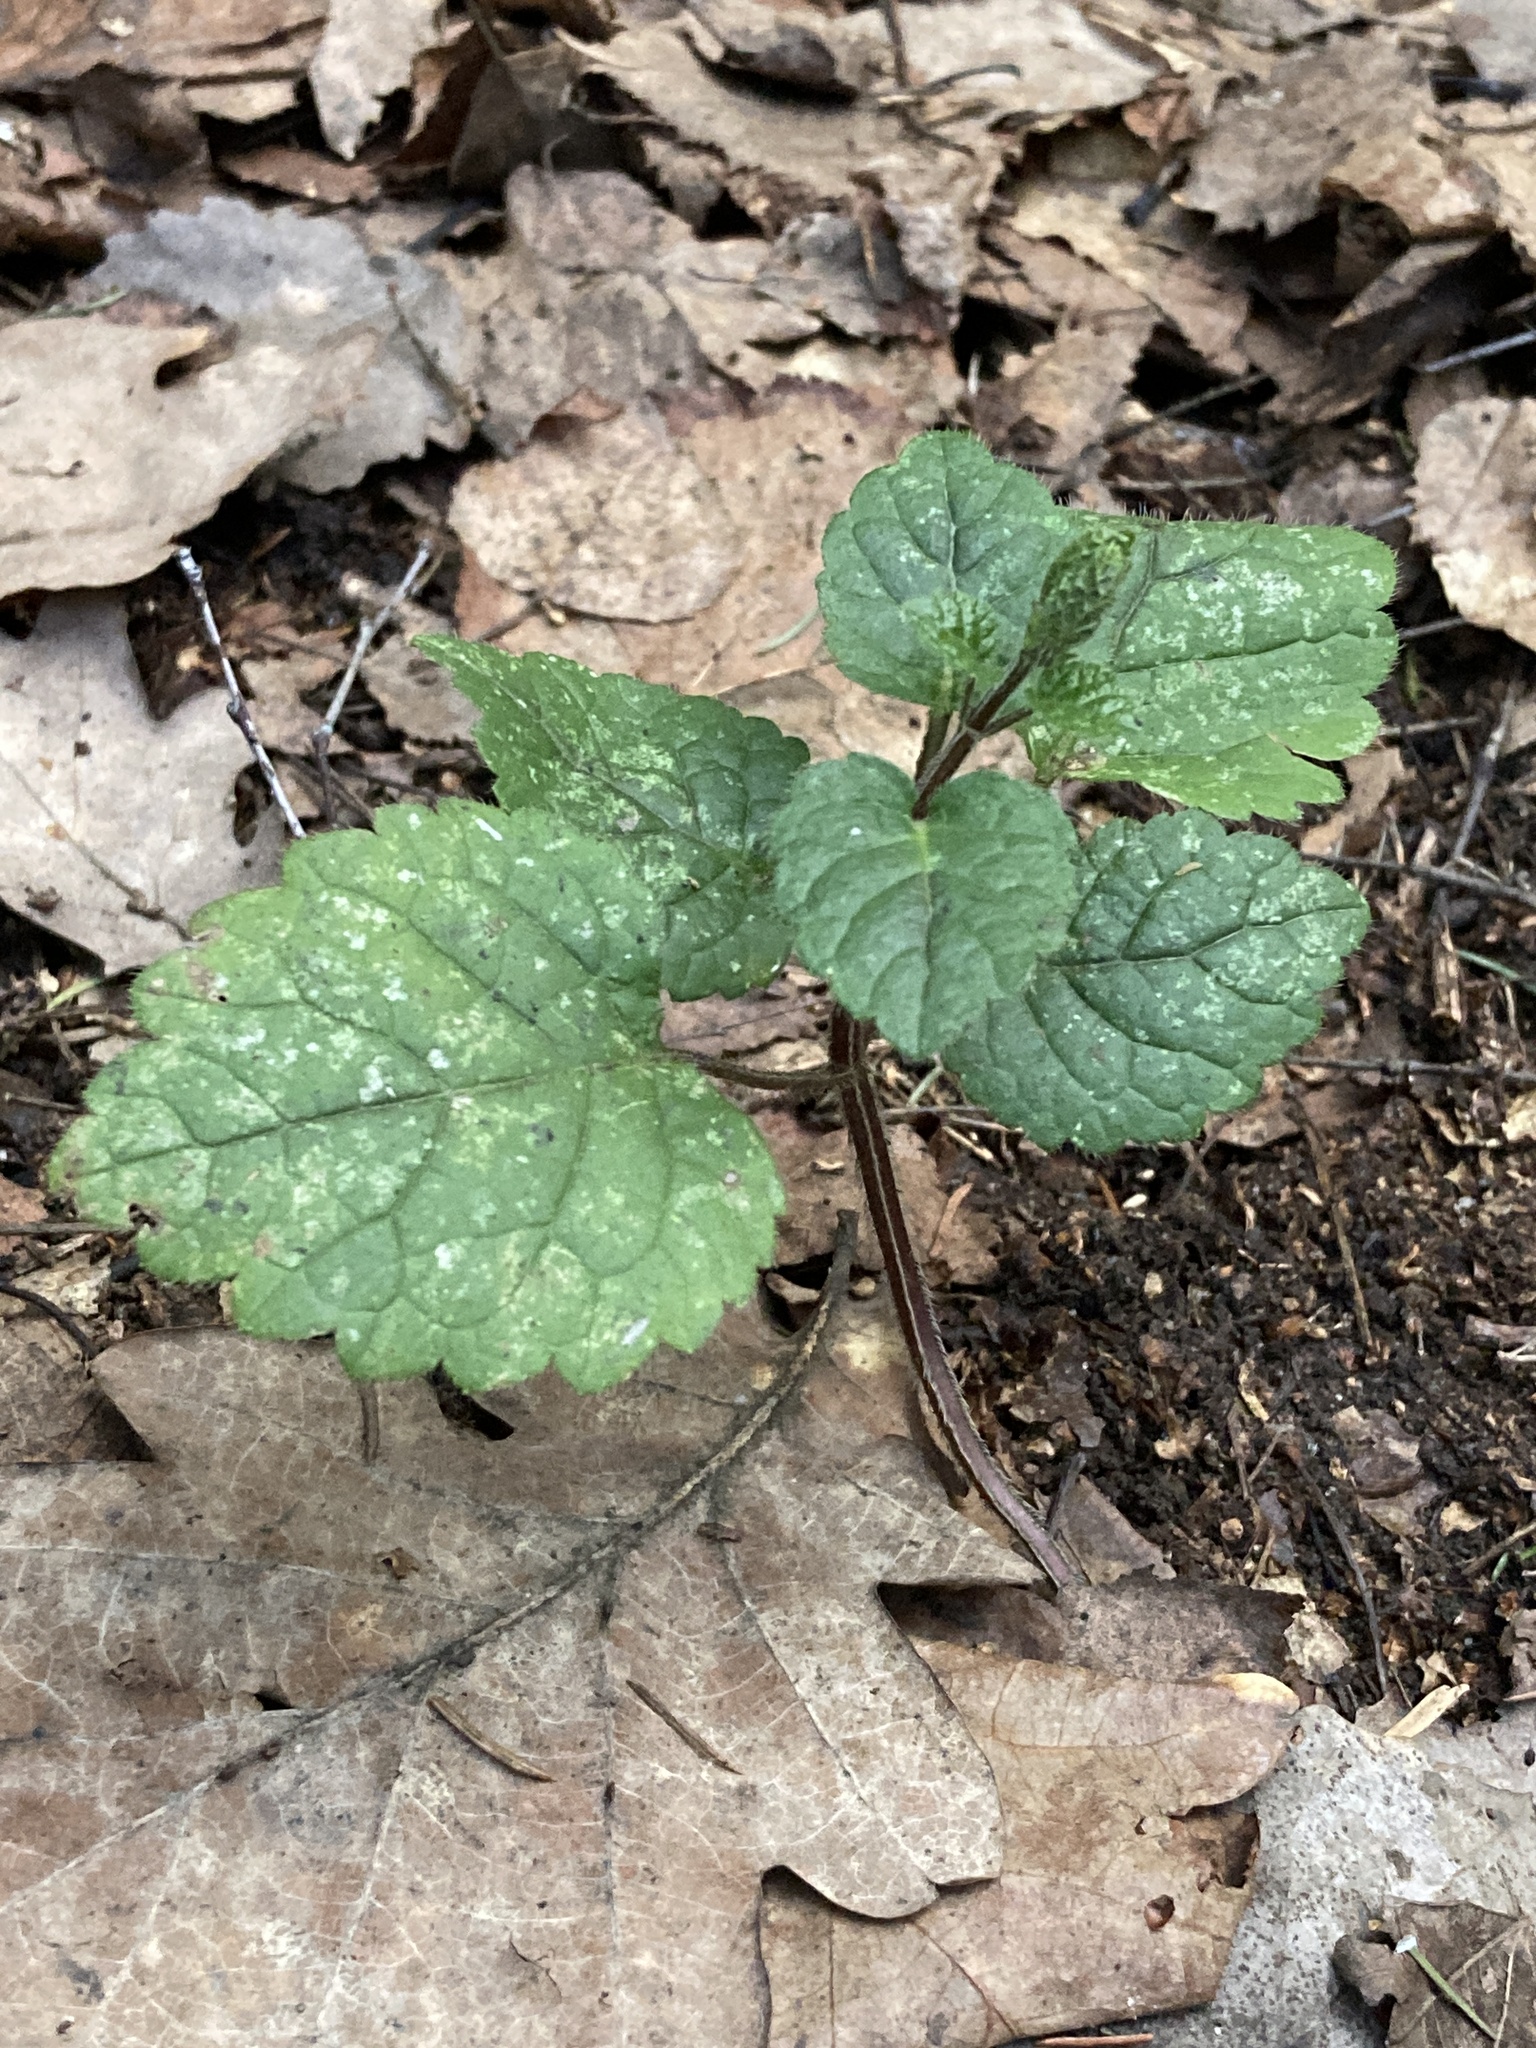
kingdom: Plantae
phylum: Tracheophyta
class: Magnoliopsida
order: Lamiales
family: Lamiaceae
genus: Lamium
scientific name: Lamium galeobdolon
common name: Yellow archangel
